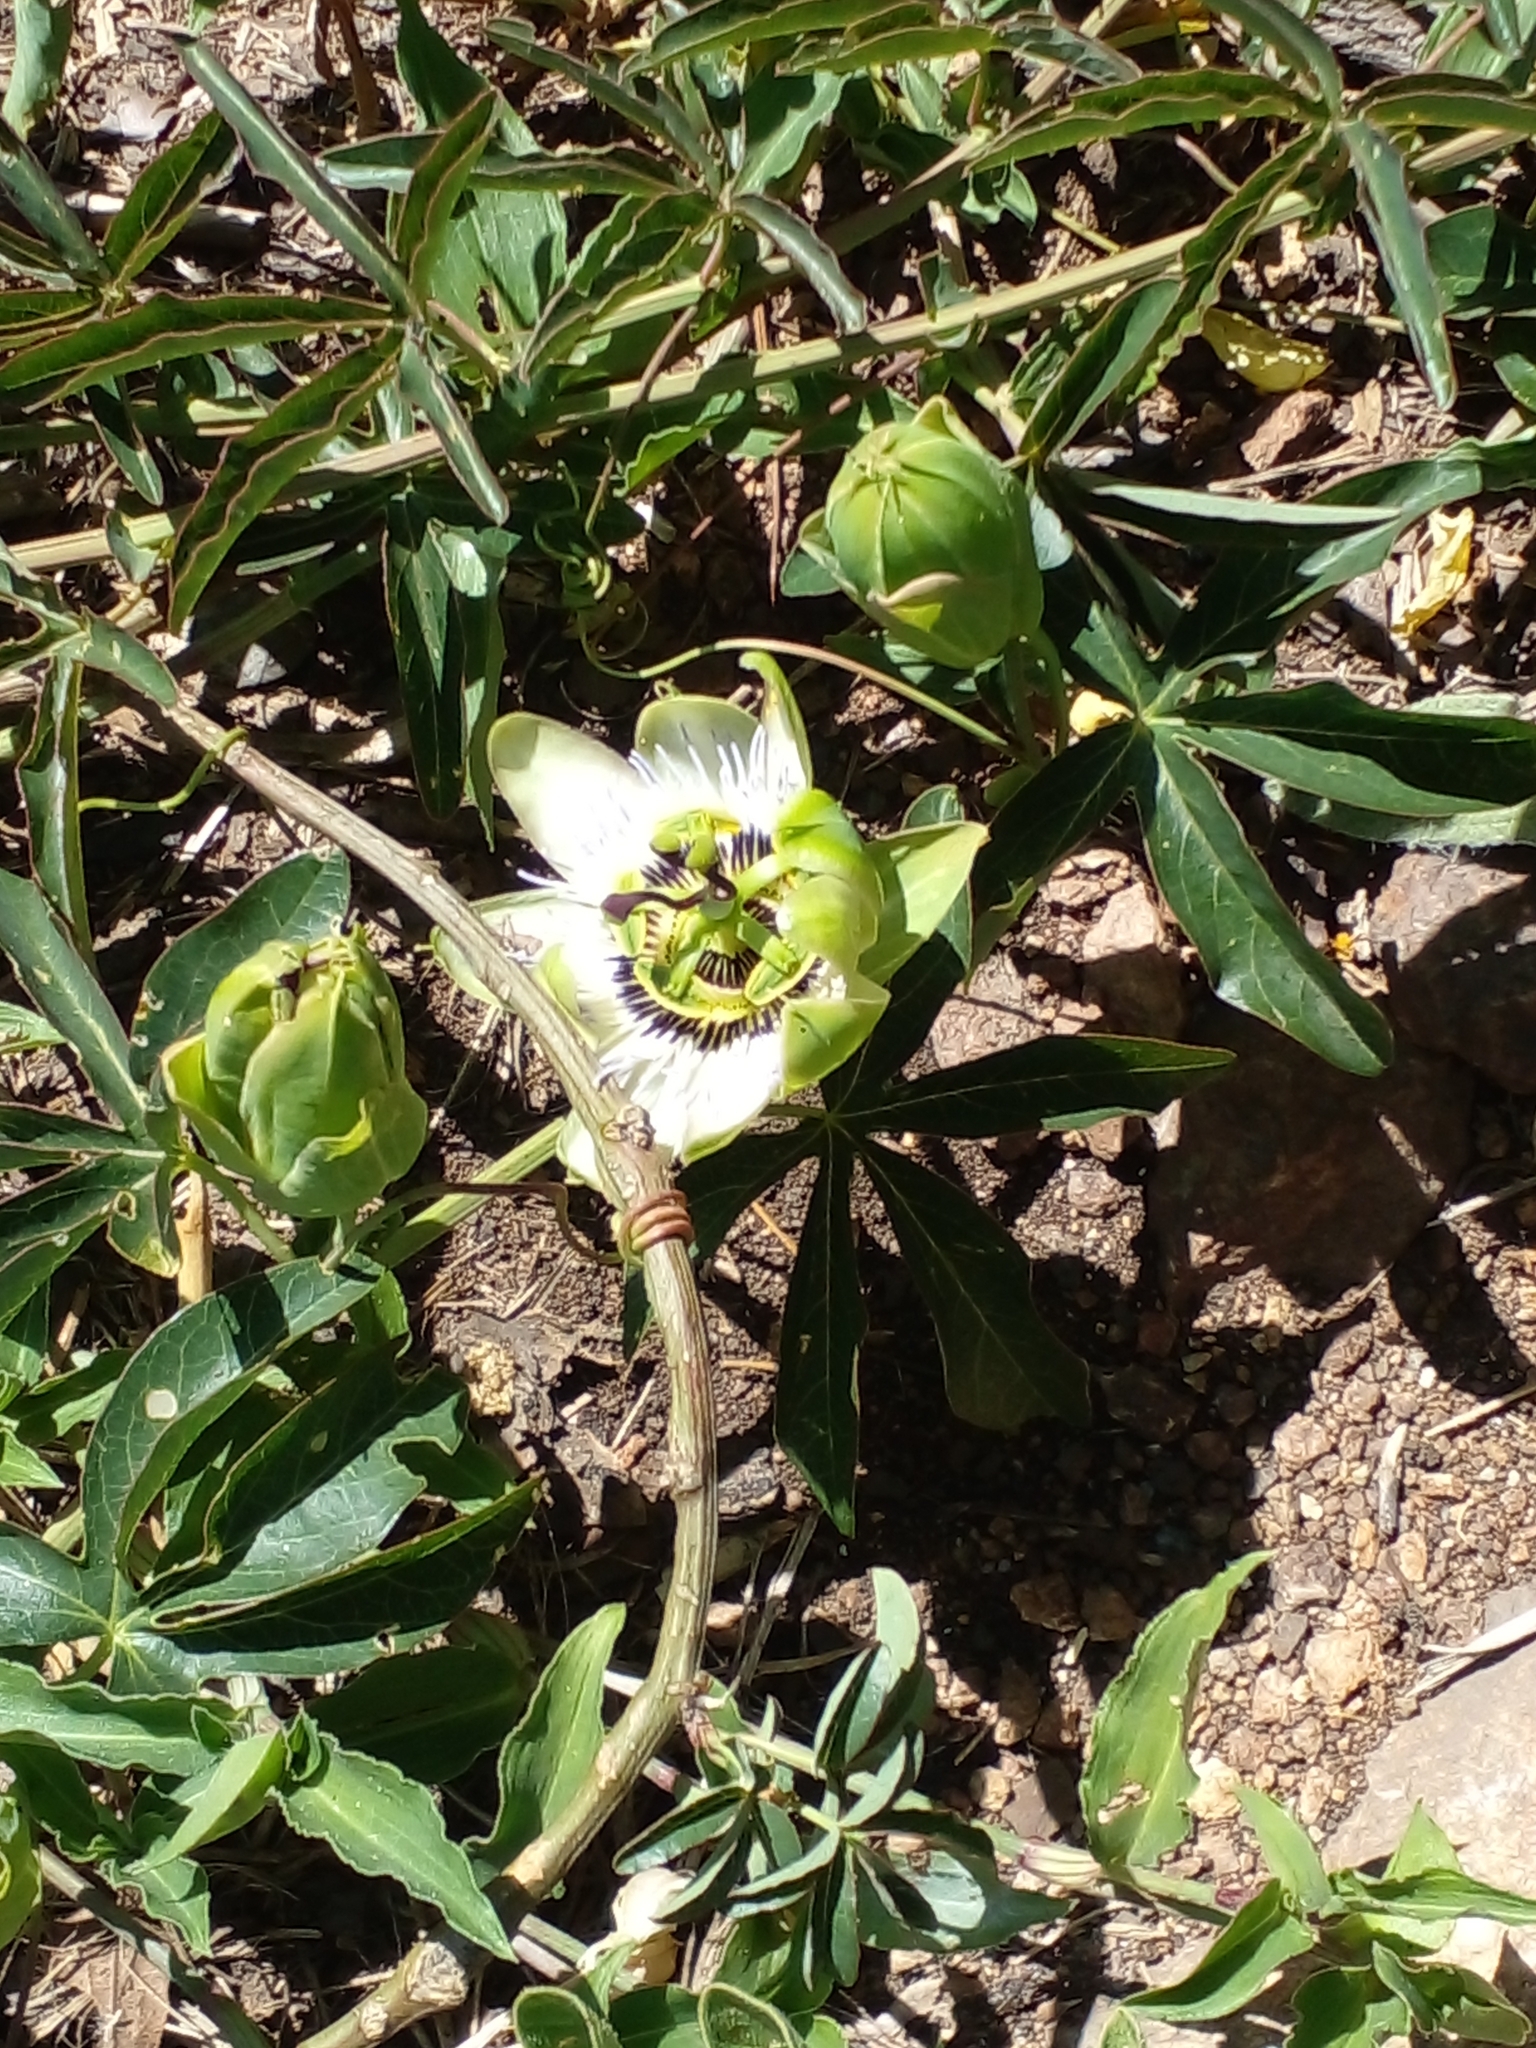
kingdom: Plantae
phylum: Tracheophyta
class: Magnoliopsida
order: Malpighiales
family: Passifloraceae
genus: Passiflora
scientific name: Passiflora caerulea
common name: Blue passionflower
